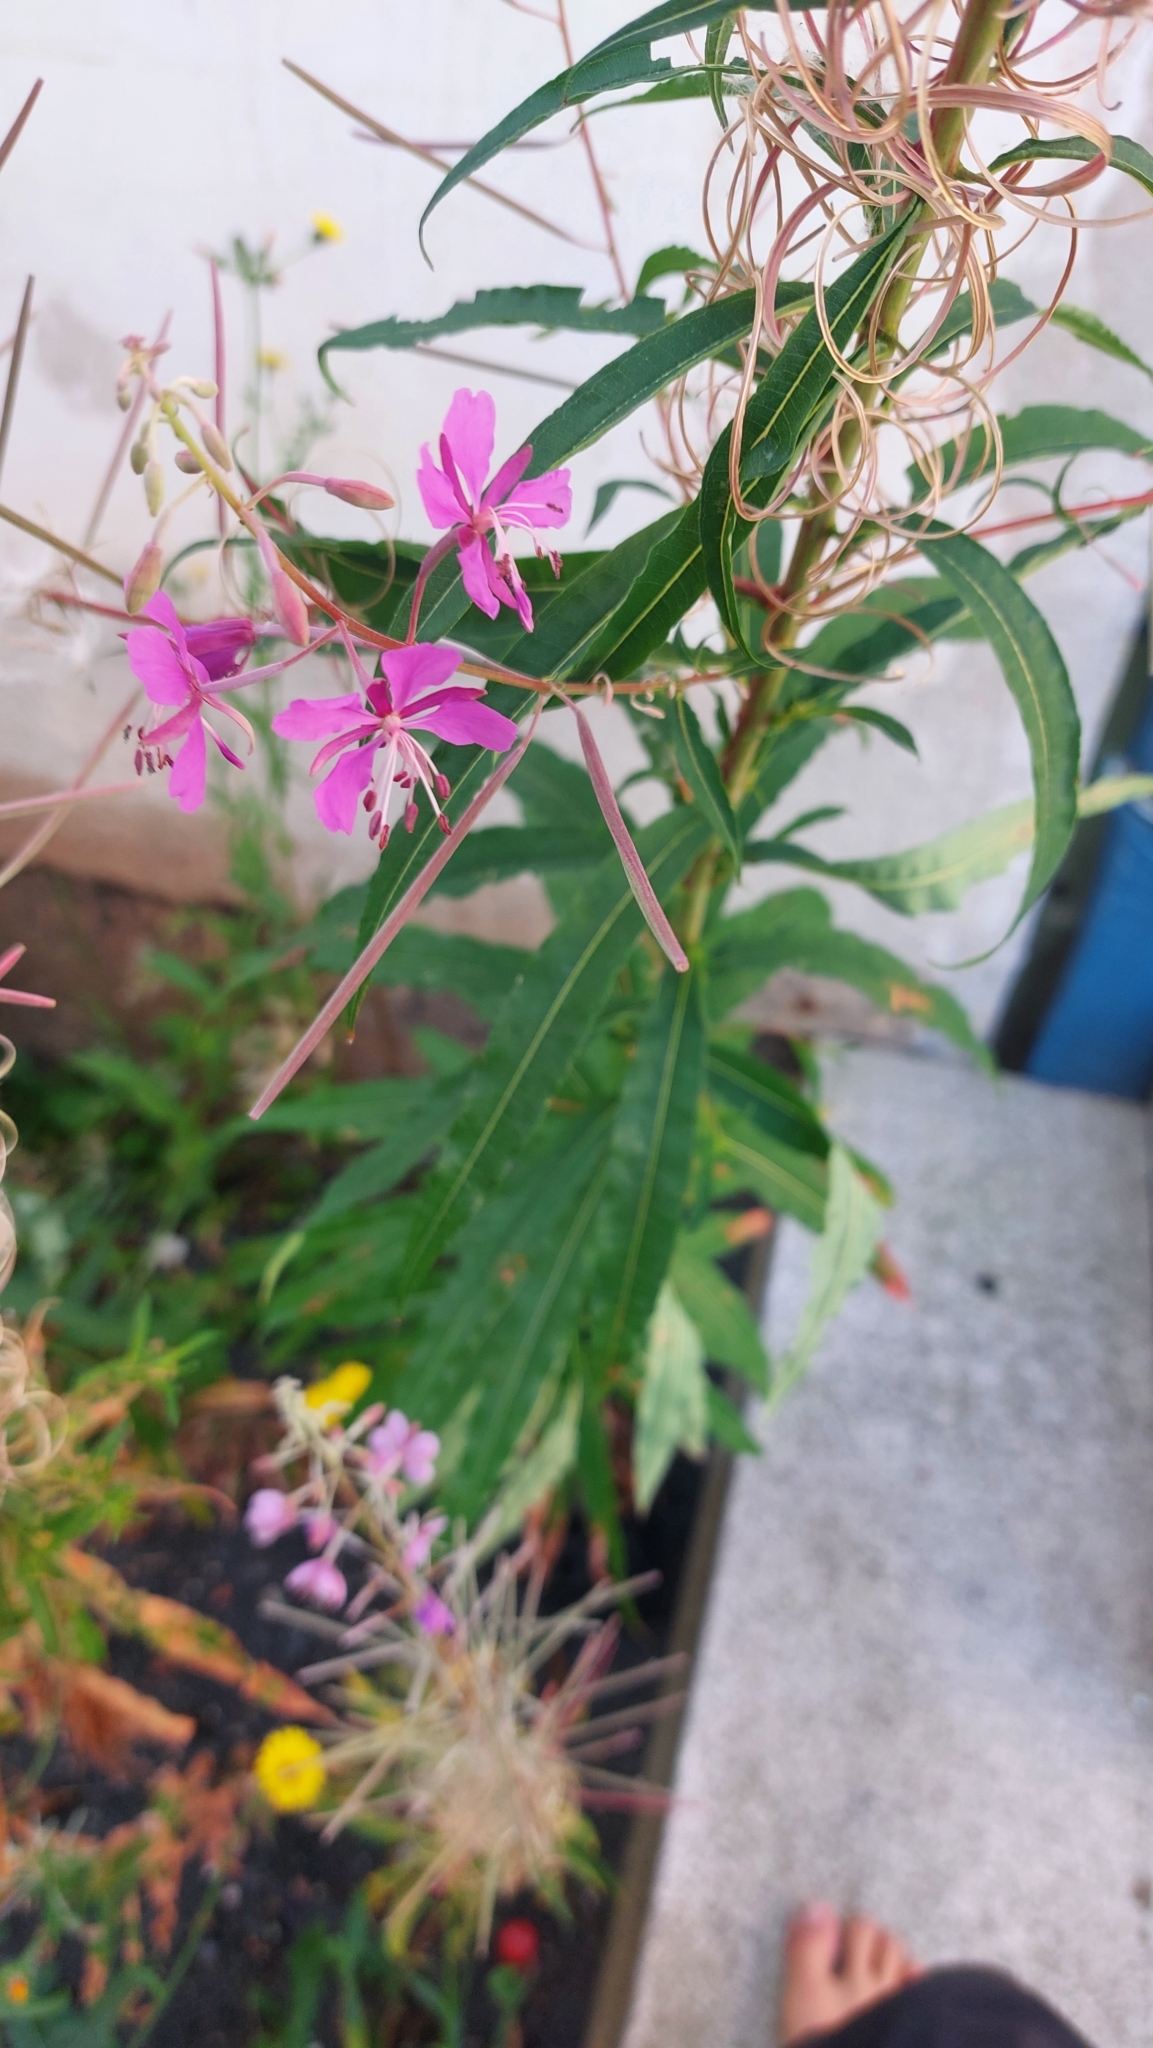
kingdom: Plantae
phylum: Tracheophyta
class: Magnoliopsida
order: Myrtales
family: Onagraceae
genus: Chamaenerion
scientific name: Chamaenerion angustifolium
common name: Fireweed
